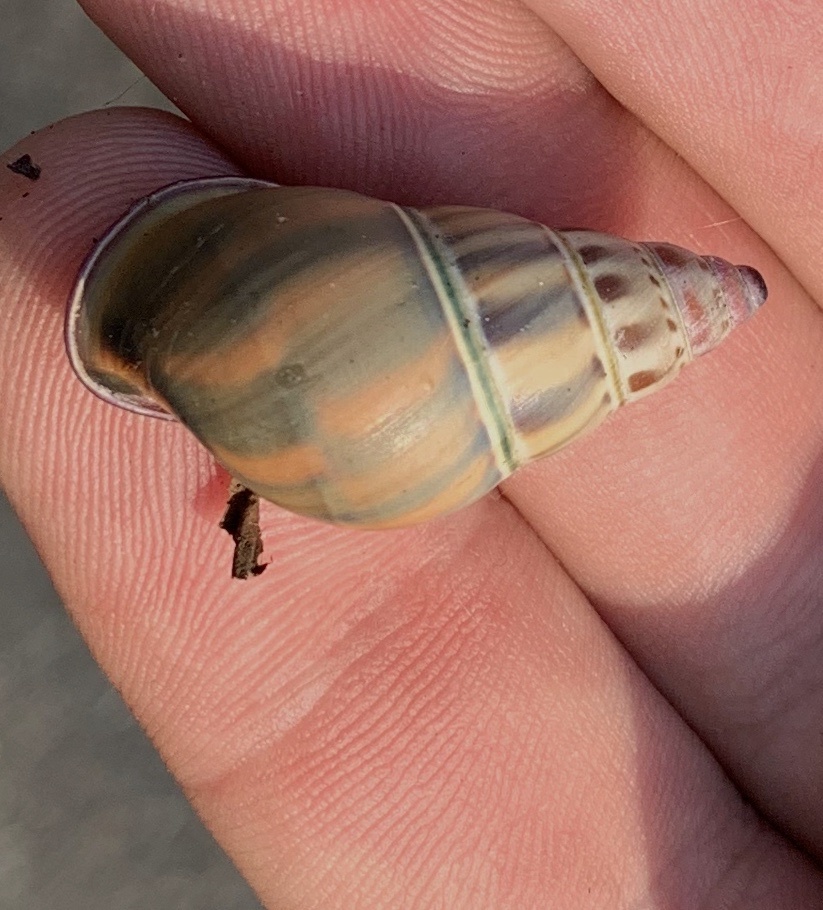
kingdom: Animalia
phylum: Mollusca
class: Gastropoda
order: Stylommatophora
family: Camaenidae
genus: Amphidromus
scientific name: Amphidromus glaucolarynx
